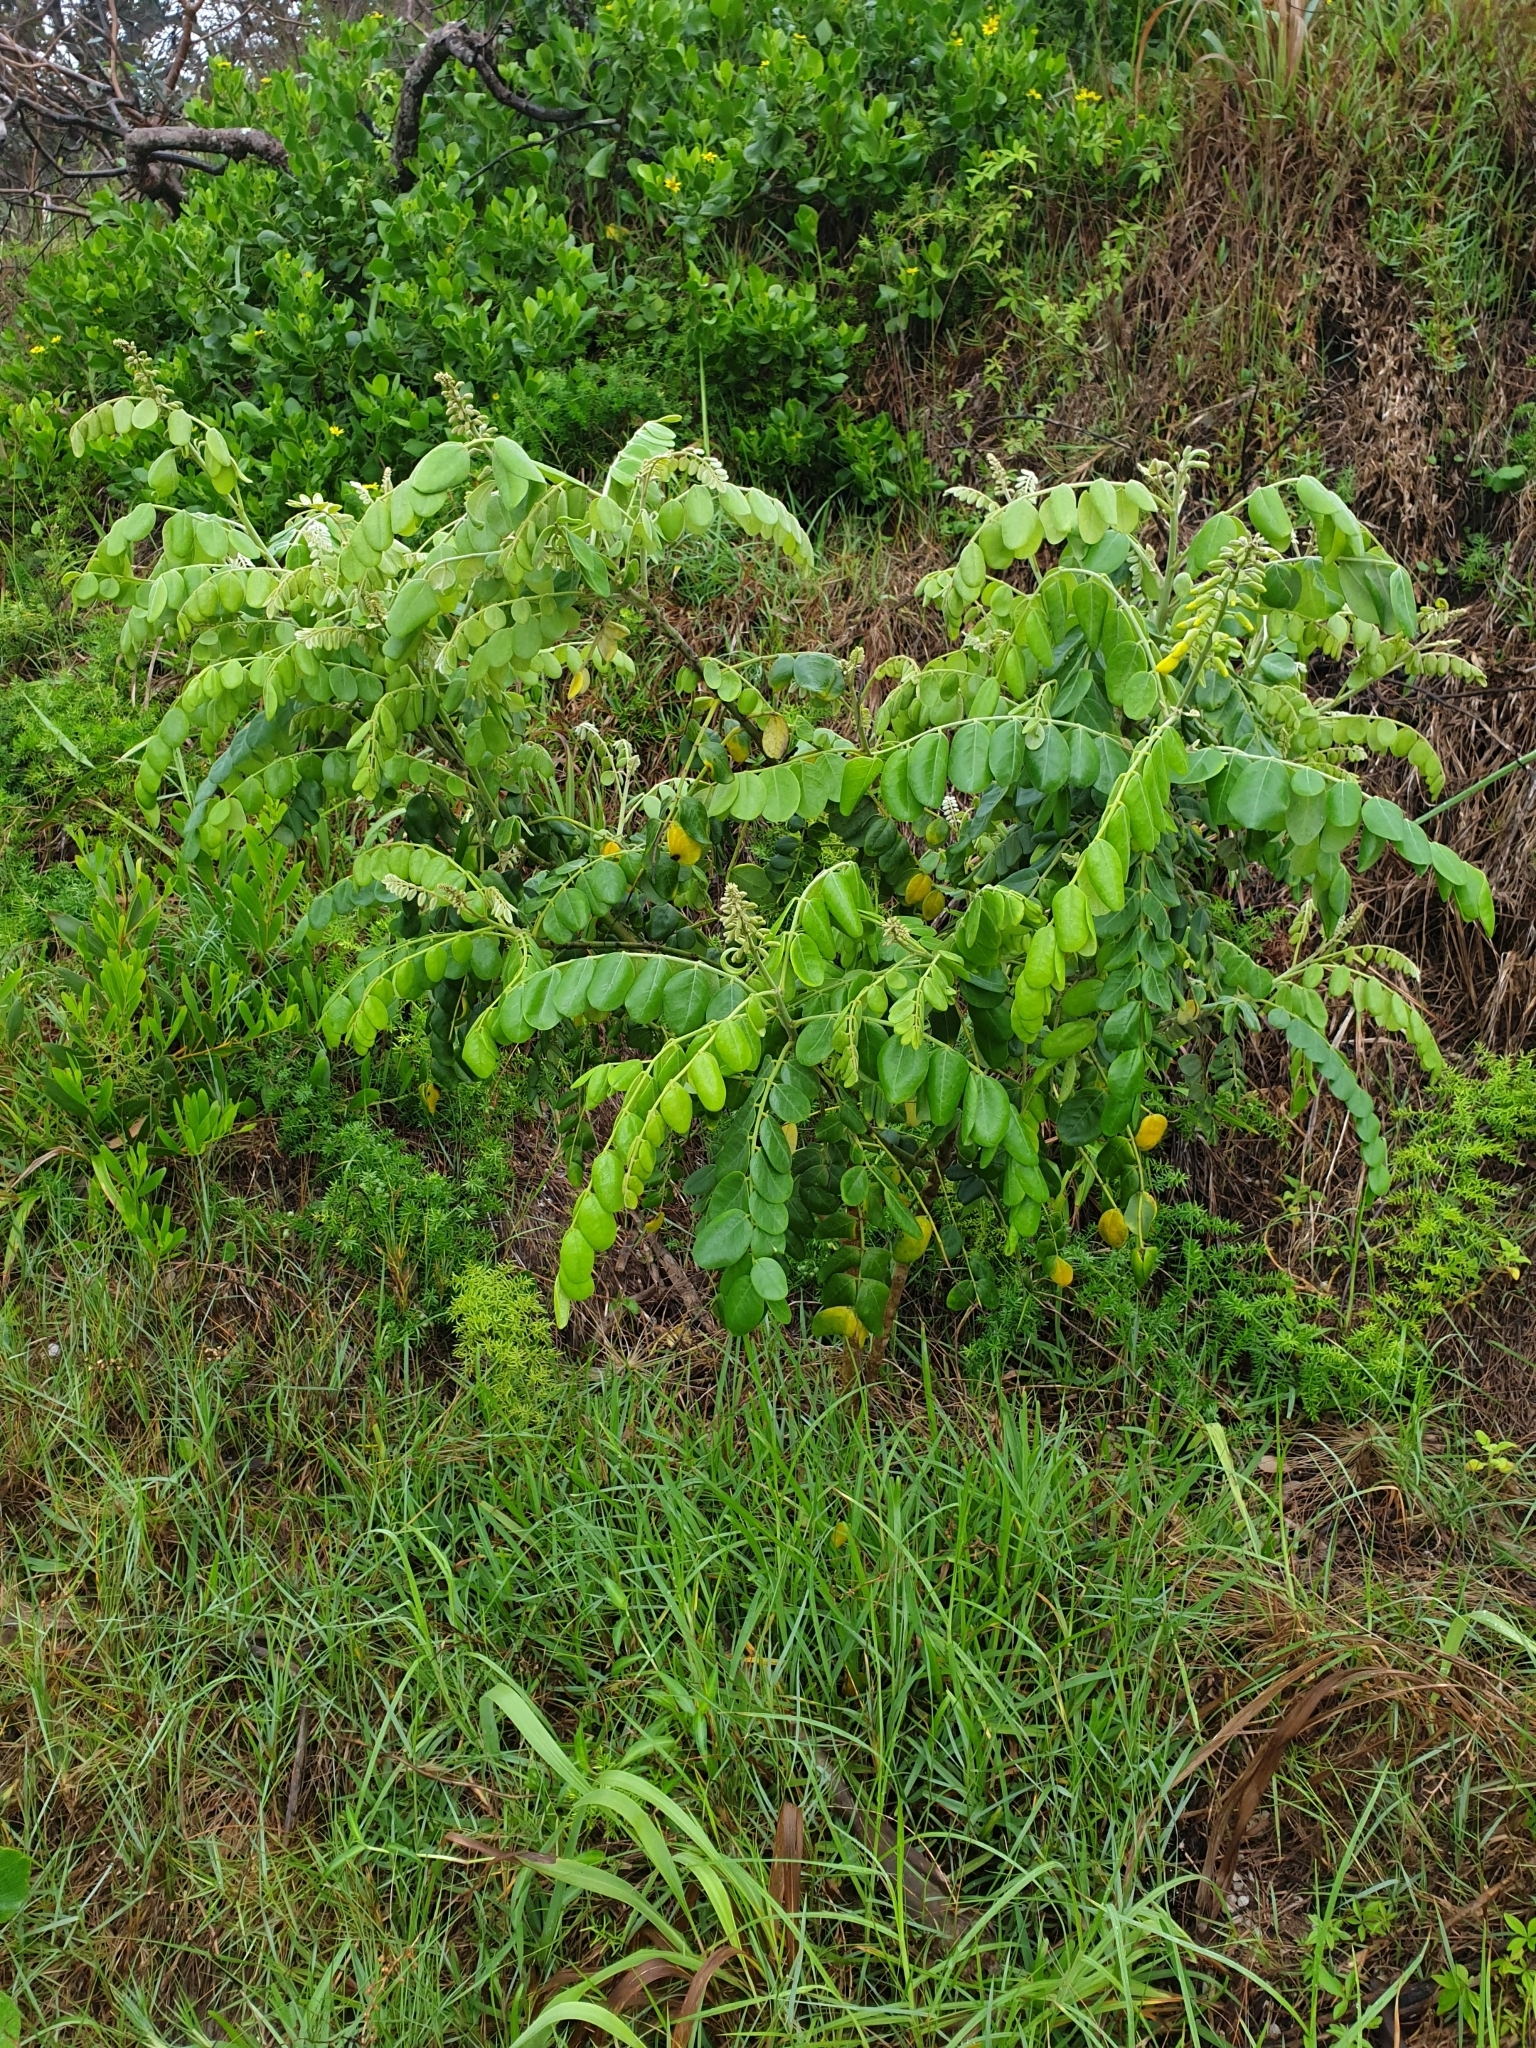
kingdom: Plantae
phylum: Tracheophyta
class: Magnoliopsida
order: Fabales
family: Fabaceae
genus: Sophora
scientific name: Sophora tomentosa
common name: Yellow necklacepod
